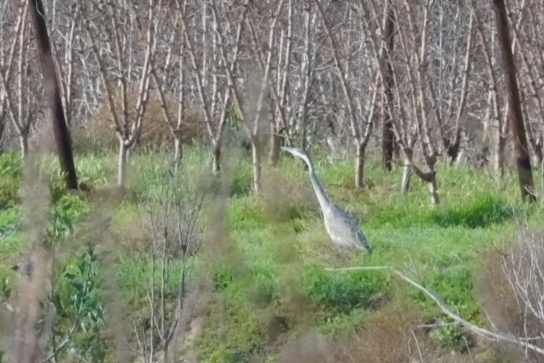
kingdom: Animalia
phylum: Chordata
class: Aves
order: Pelecaniformes
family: Ardeidae
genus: Ardea
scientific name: Ardea melanocephala
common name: Black-headed heron
